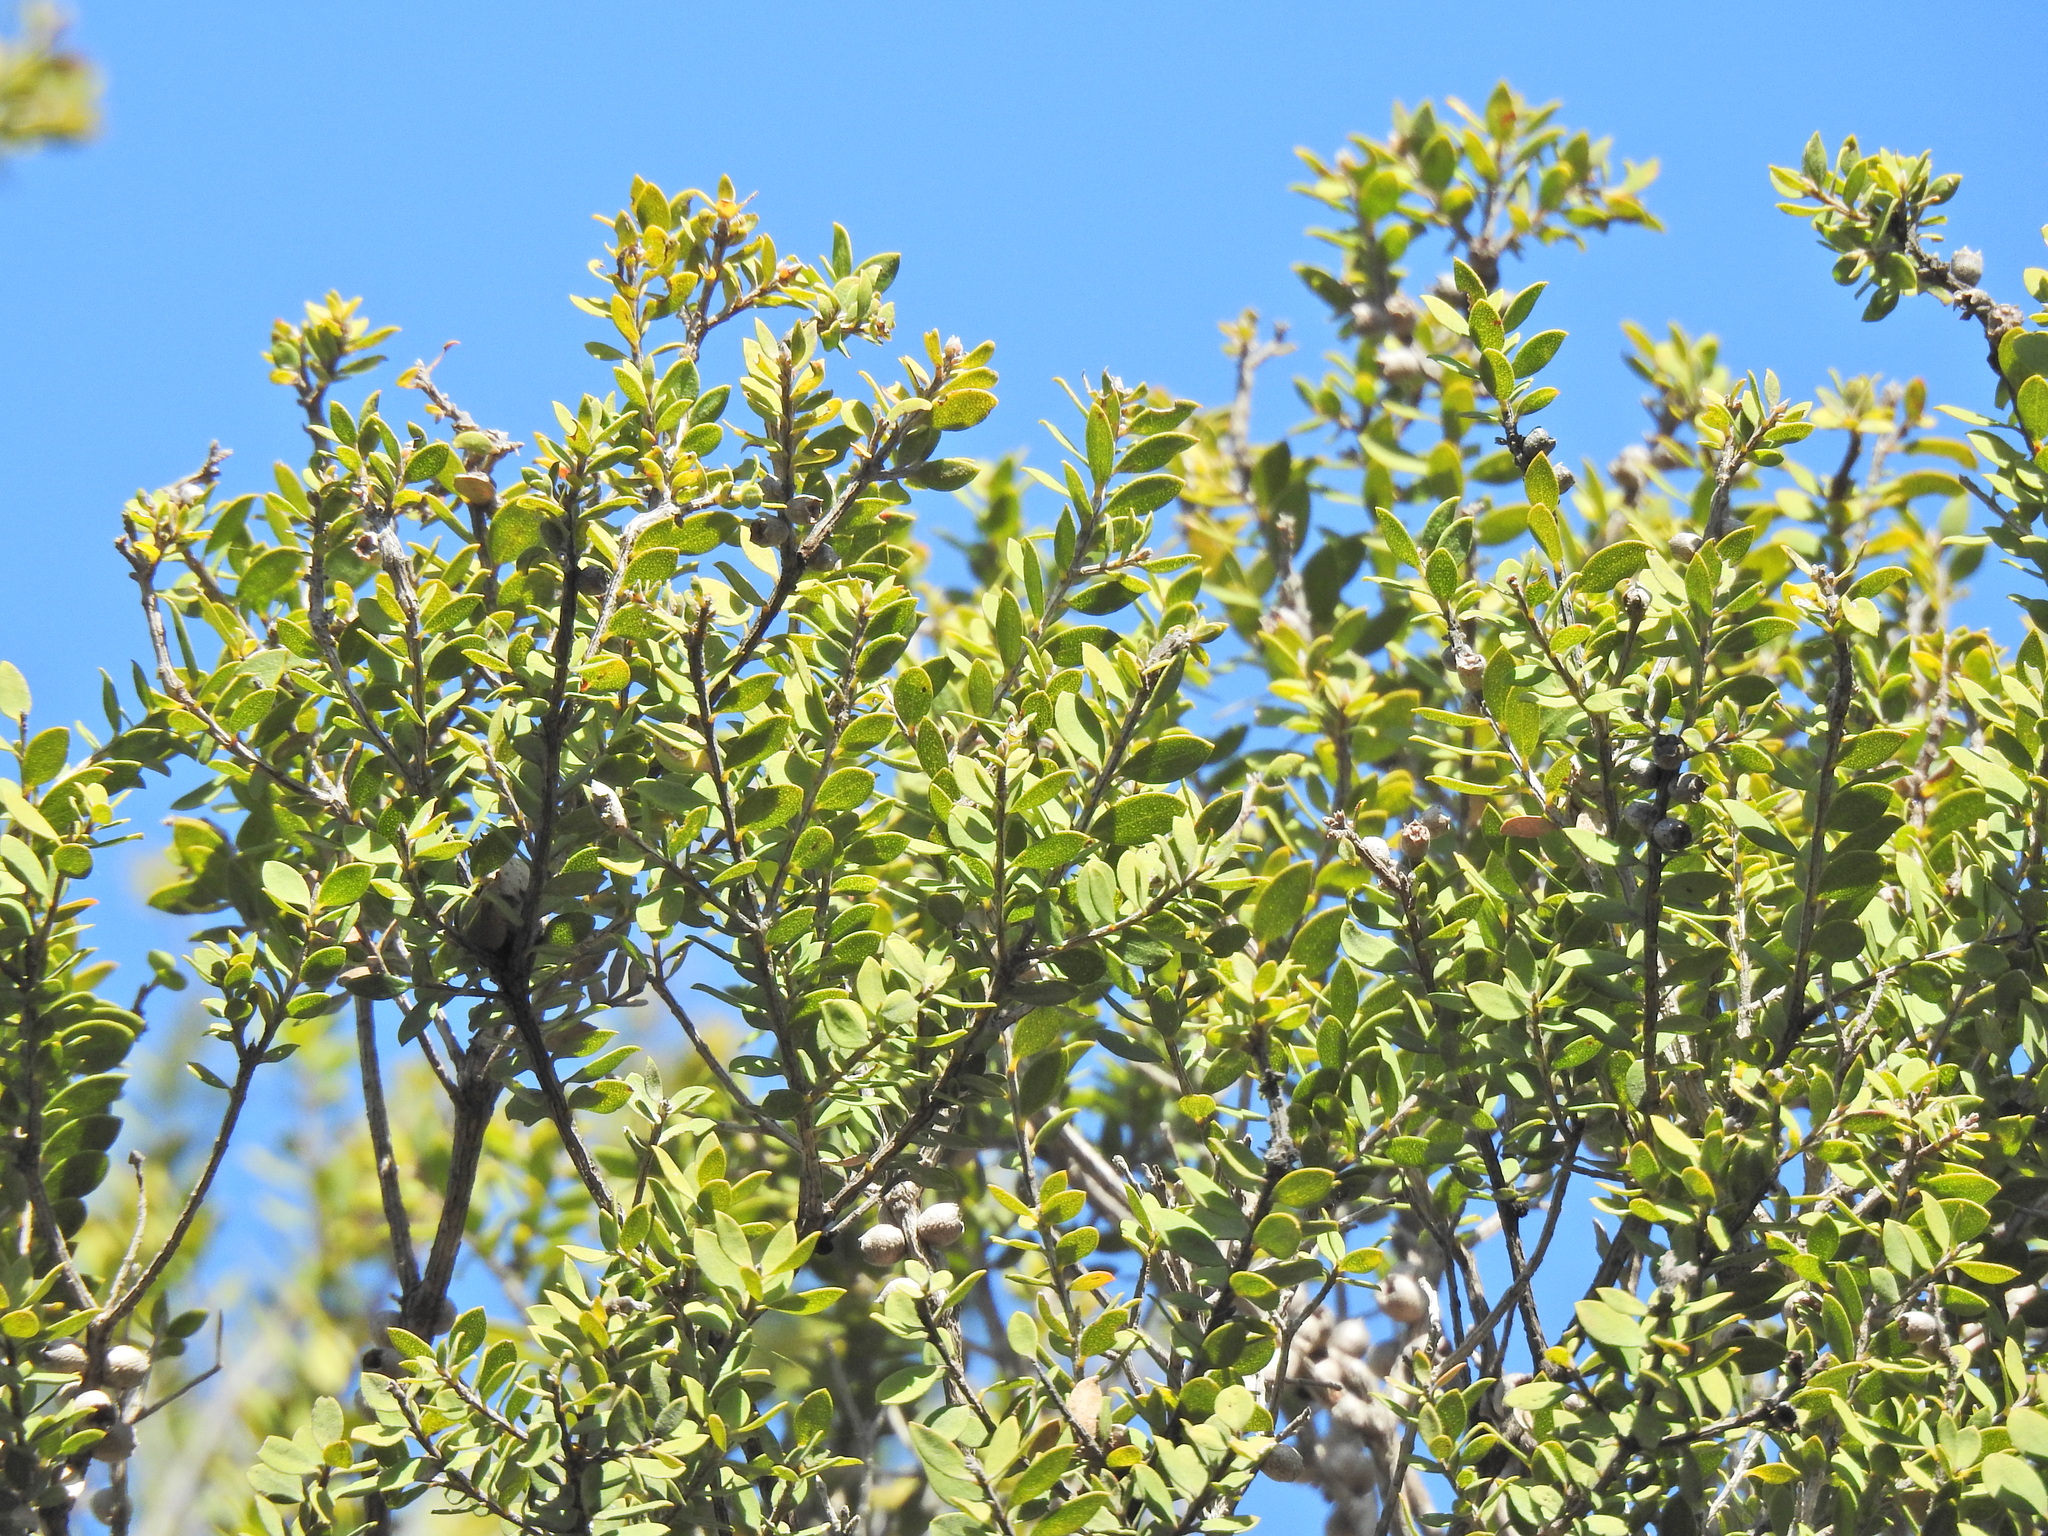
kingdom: Plantae
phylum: Tracheophyta
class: Magnoliopsida
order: Myrtales
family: Myrtaceae
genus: Melaleuca
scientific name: Melaleuca cheelii
